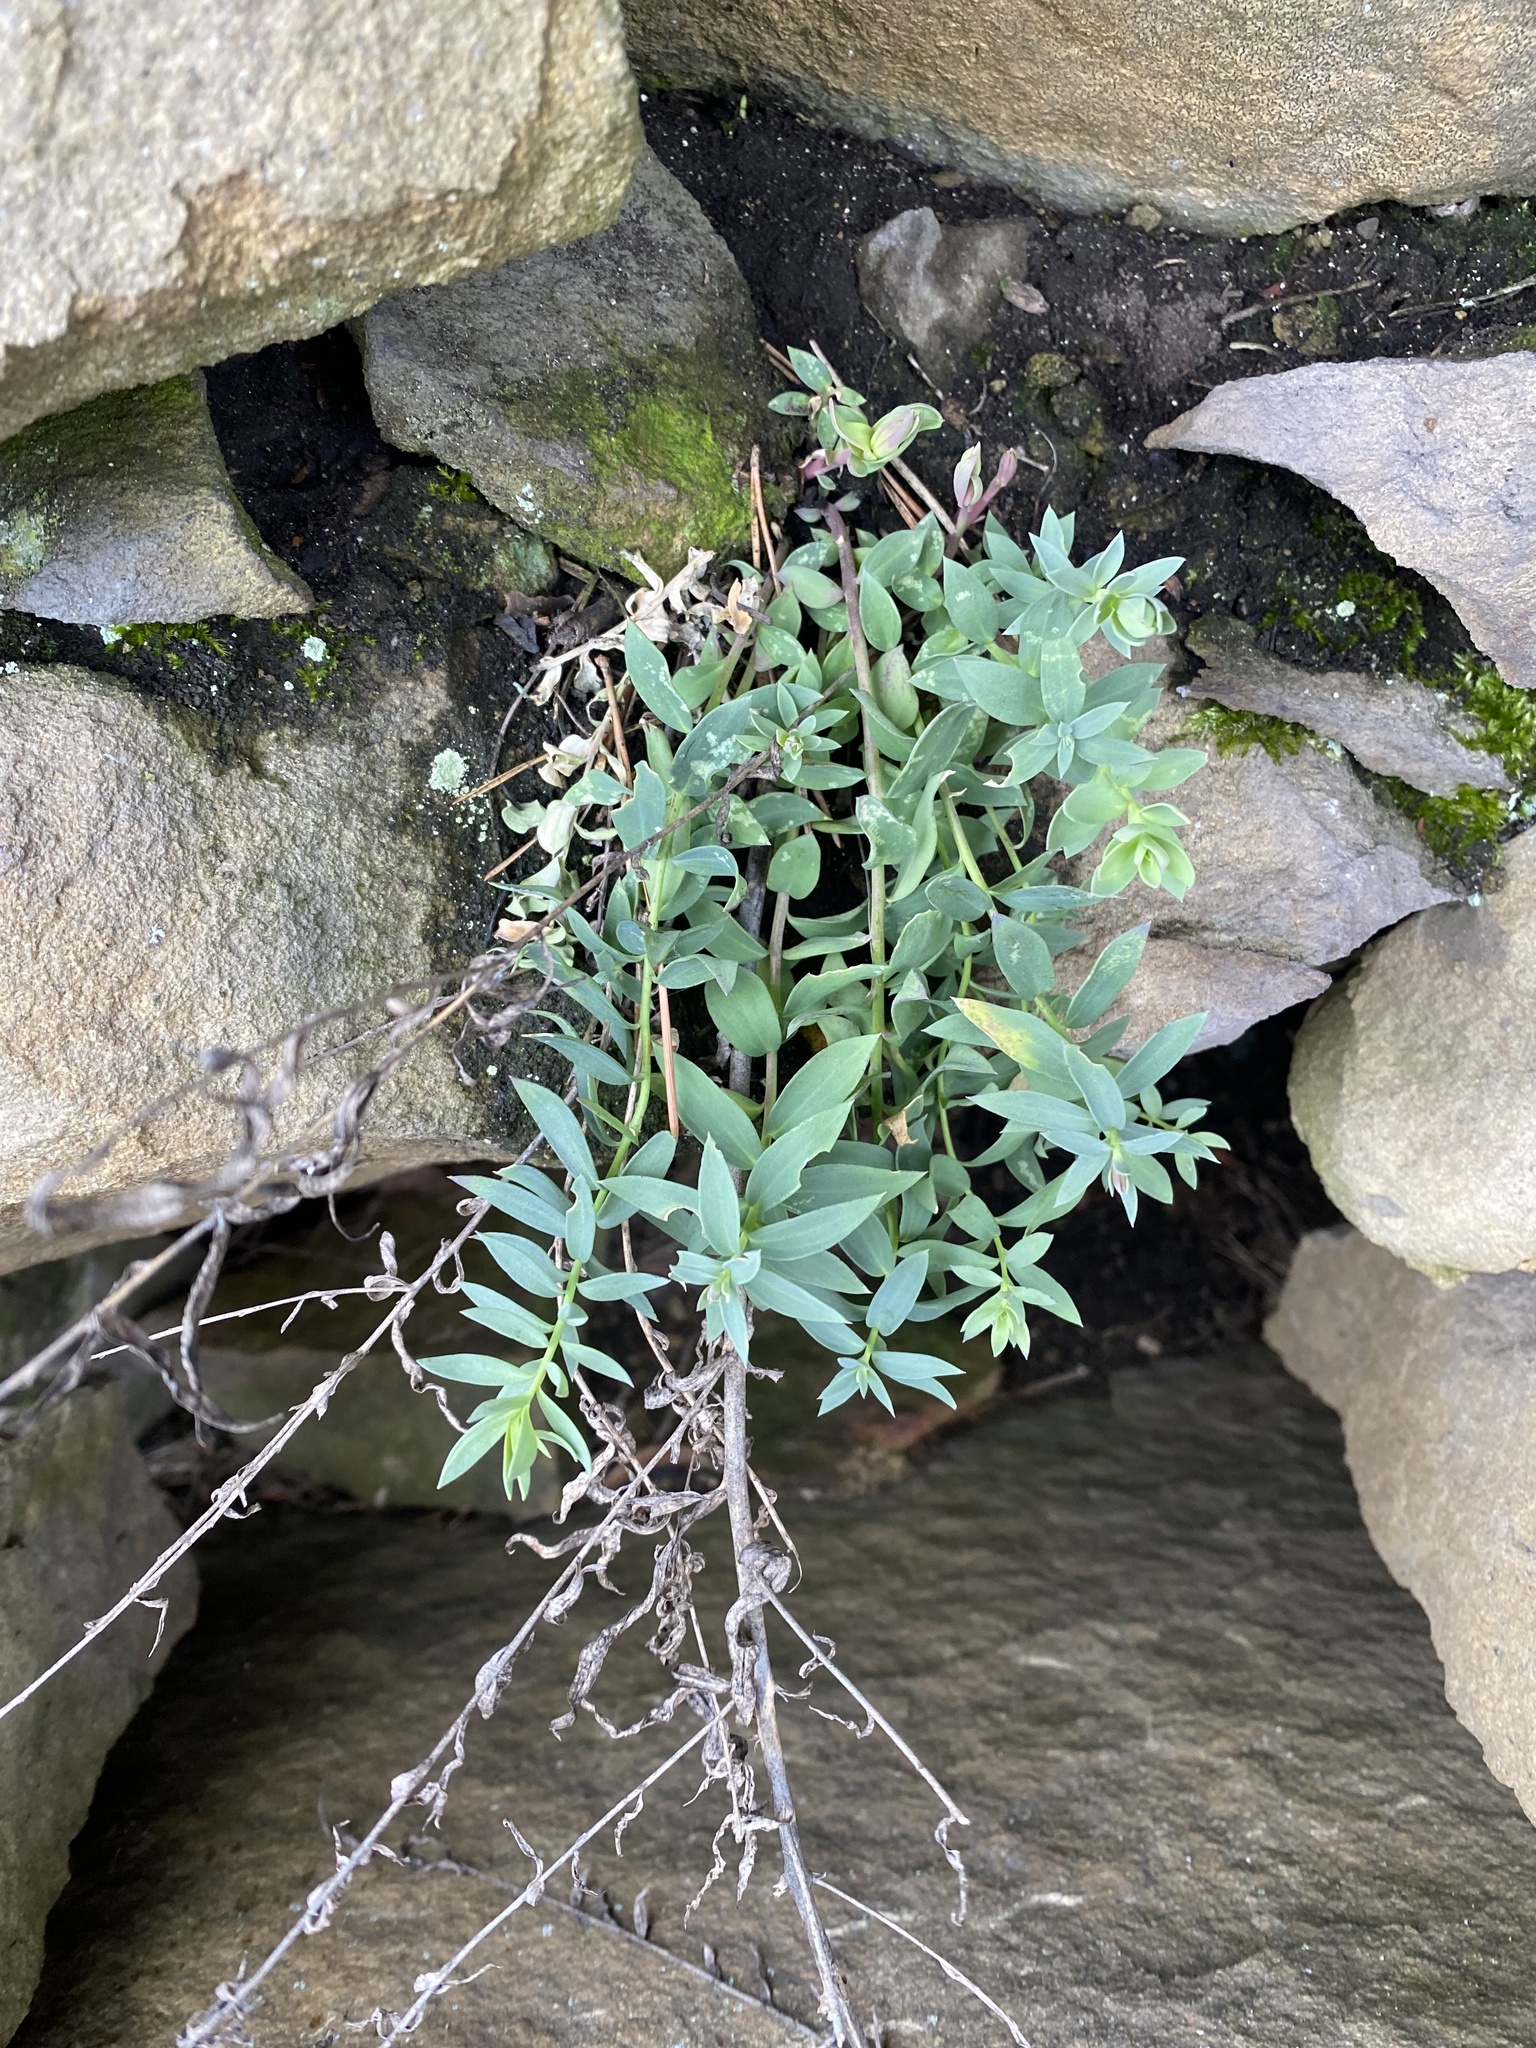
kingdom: Plantae
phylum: Tracheophyta
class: Magnoliopsida
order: Lamiales
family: Plantaginaceae
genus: Linaria
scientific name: Linaria genistifolia
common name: Broomleaf toadflax
